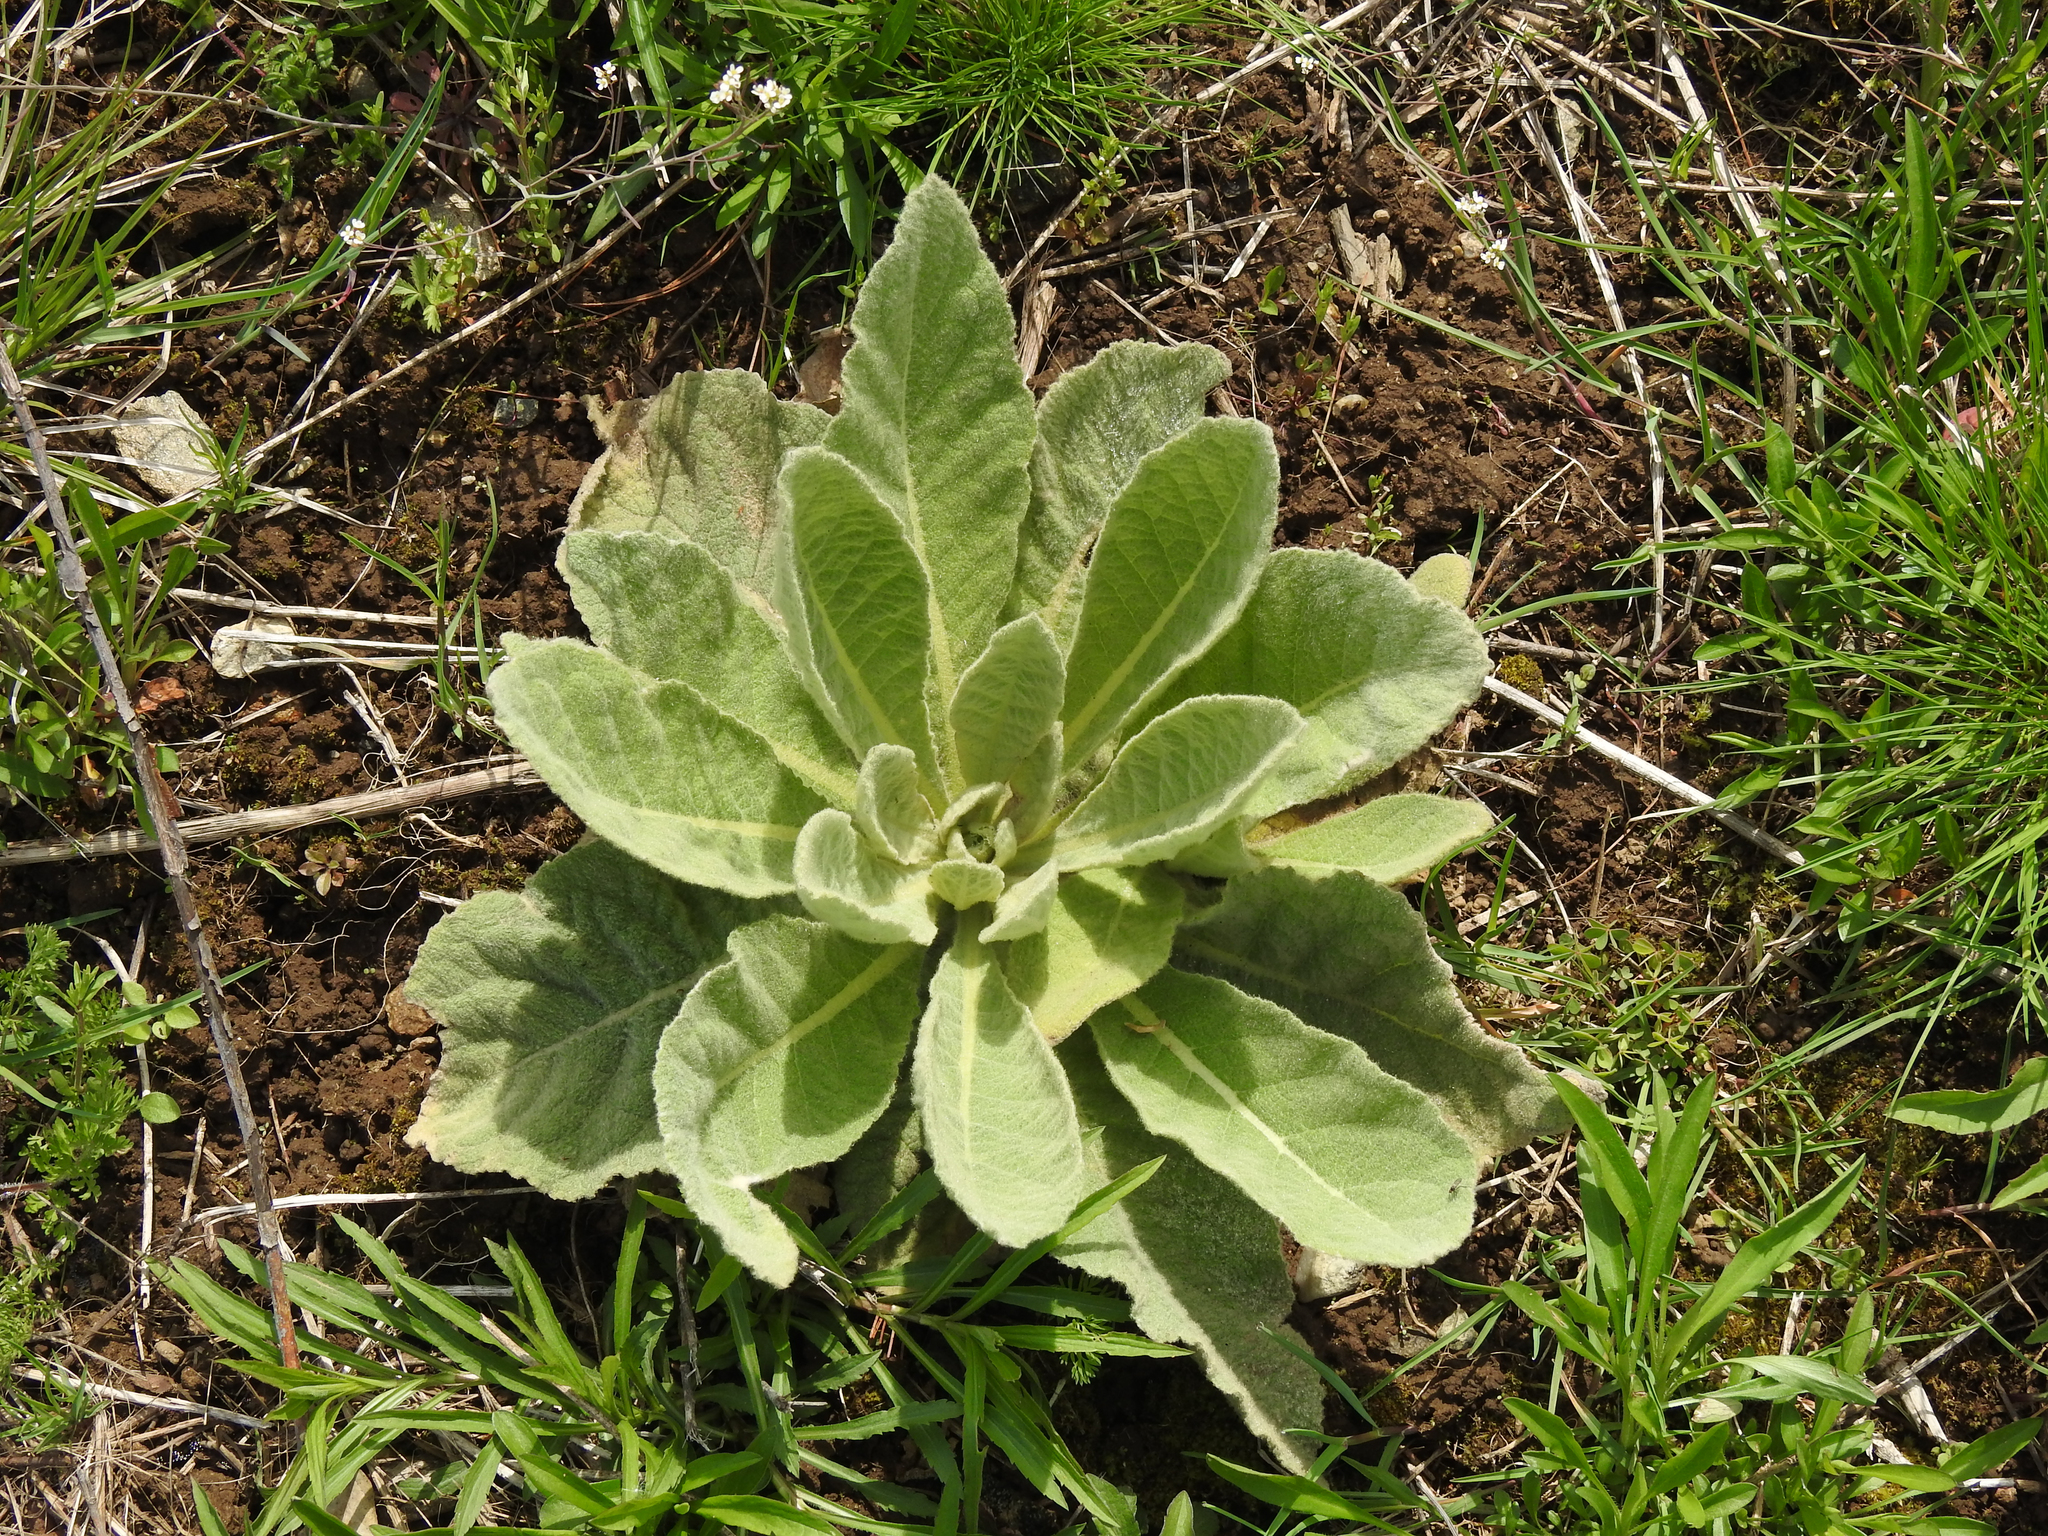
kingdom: Plantae
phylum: Tracheophyta
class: Magnoliopsida
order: Lamiales
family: Scrophulariaceae
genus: Verbascum
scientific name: Verbascum thapsus
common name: Common mullein
